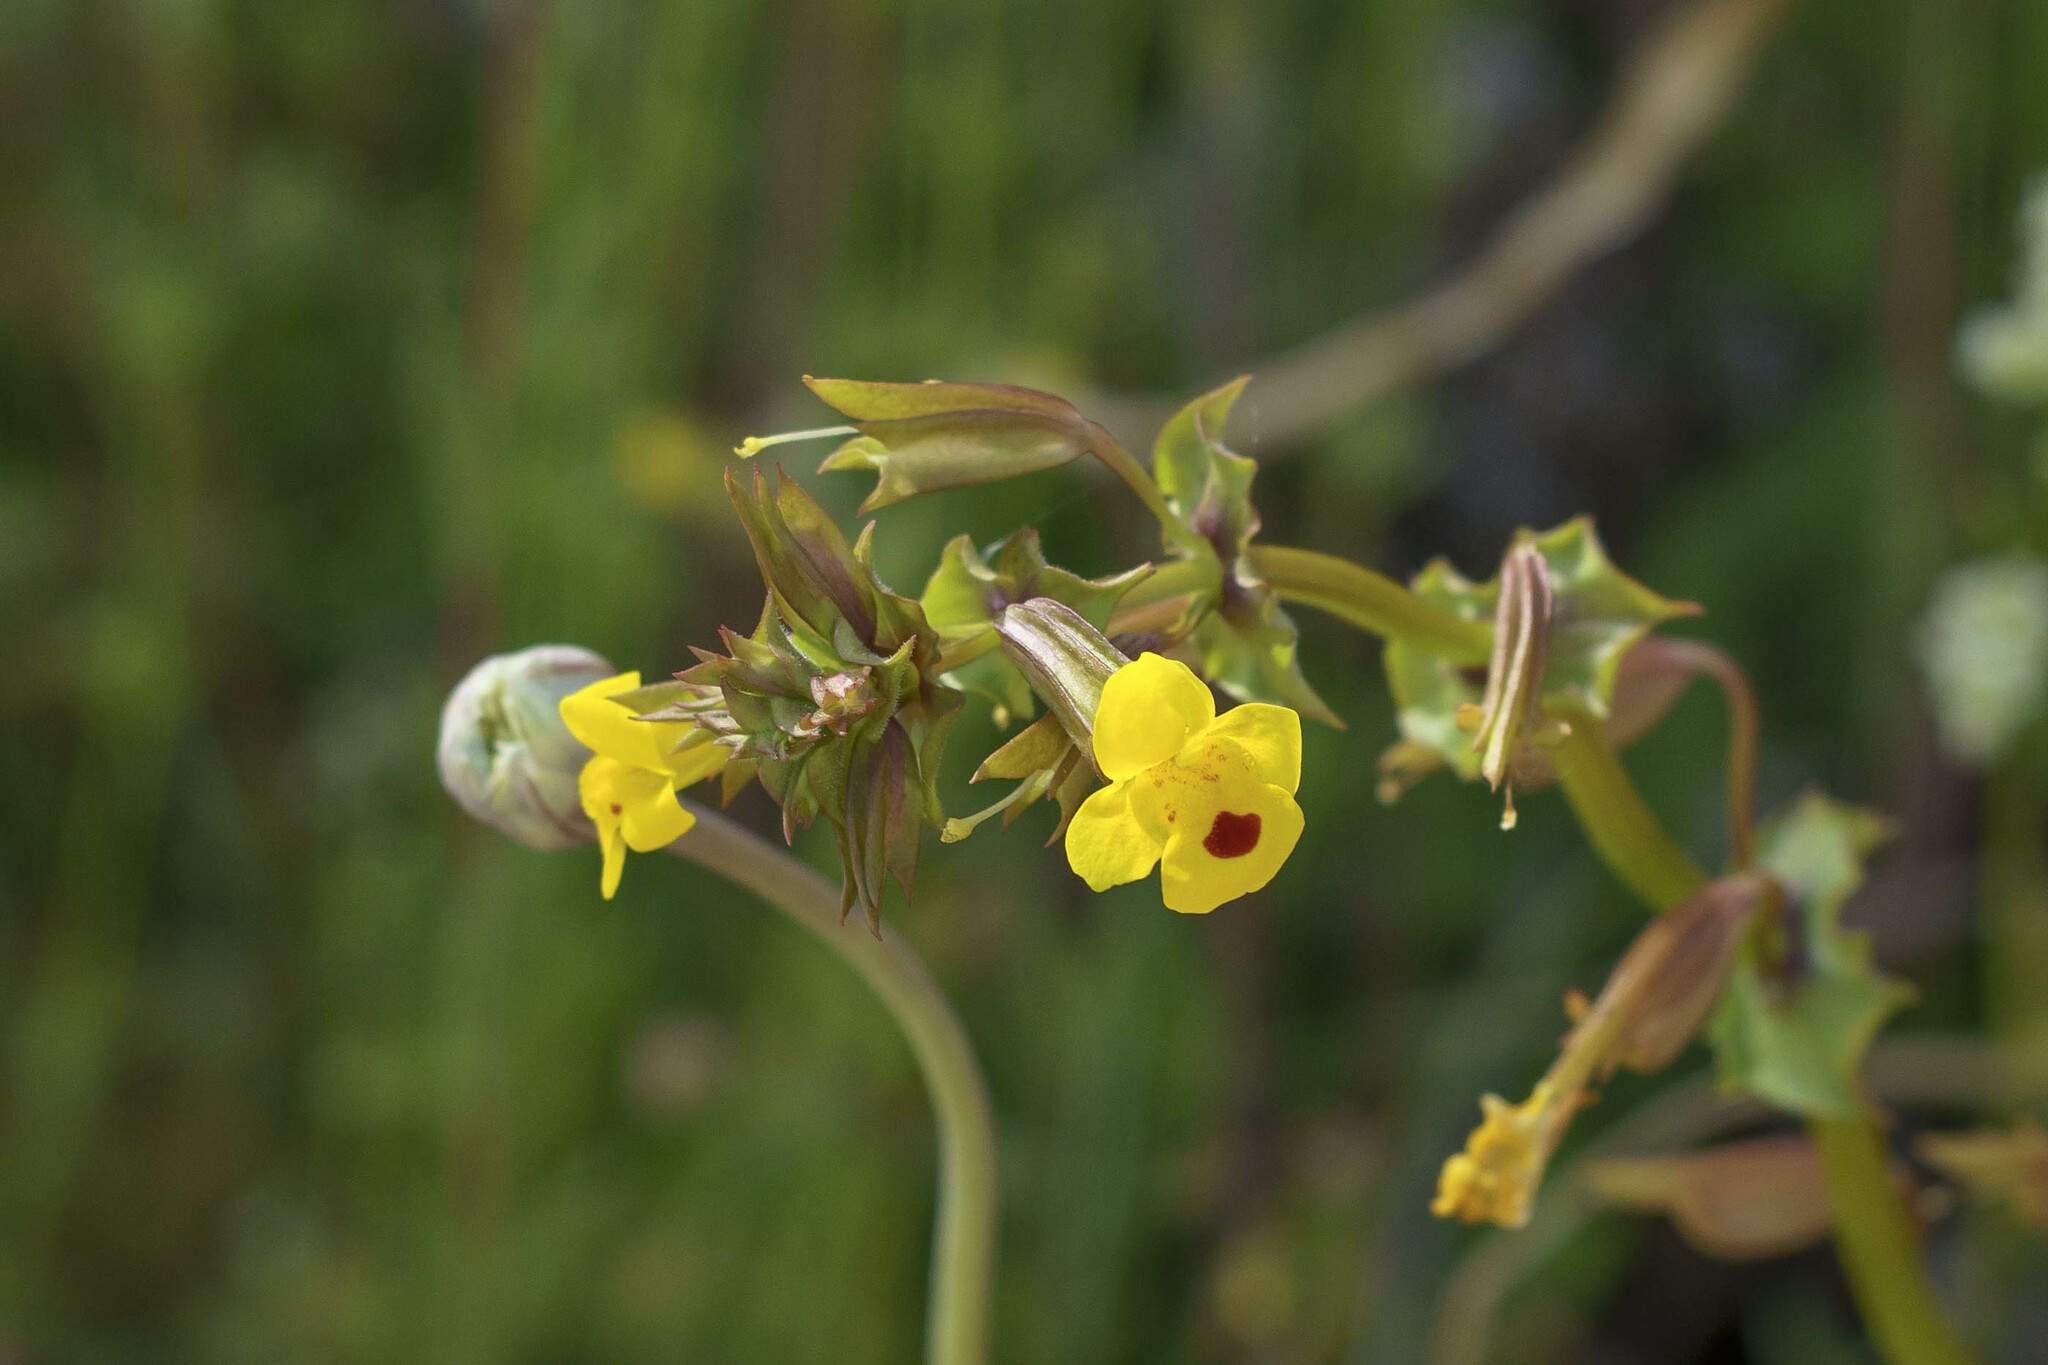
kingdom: Plantae
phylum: Tracheophyta
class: Magnoliopsida
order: Lamiales
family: Phrymaceae
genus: Erythranthe
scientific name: Erythranthe nasuta
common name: Sooke monkeyflower
